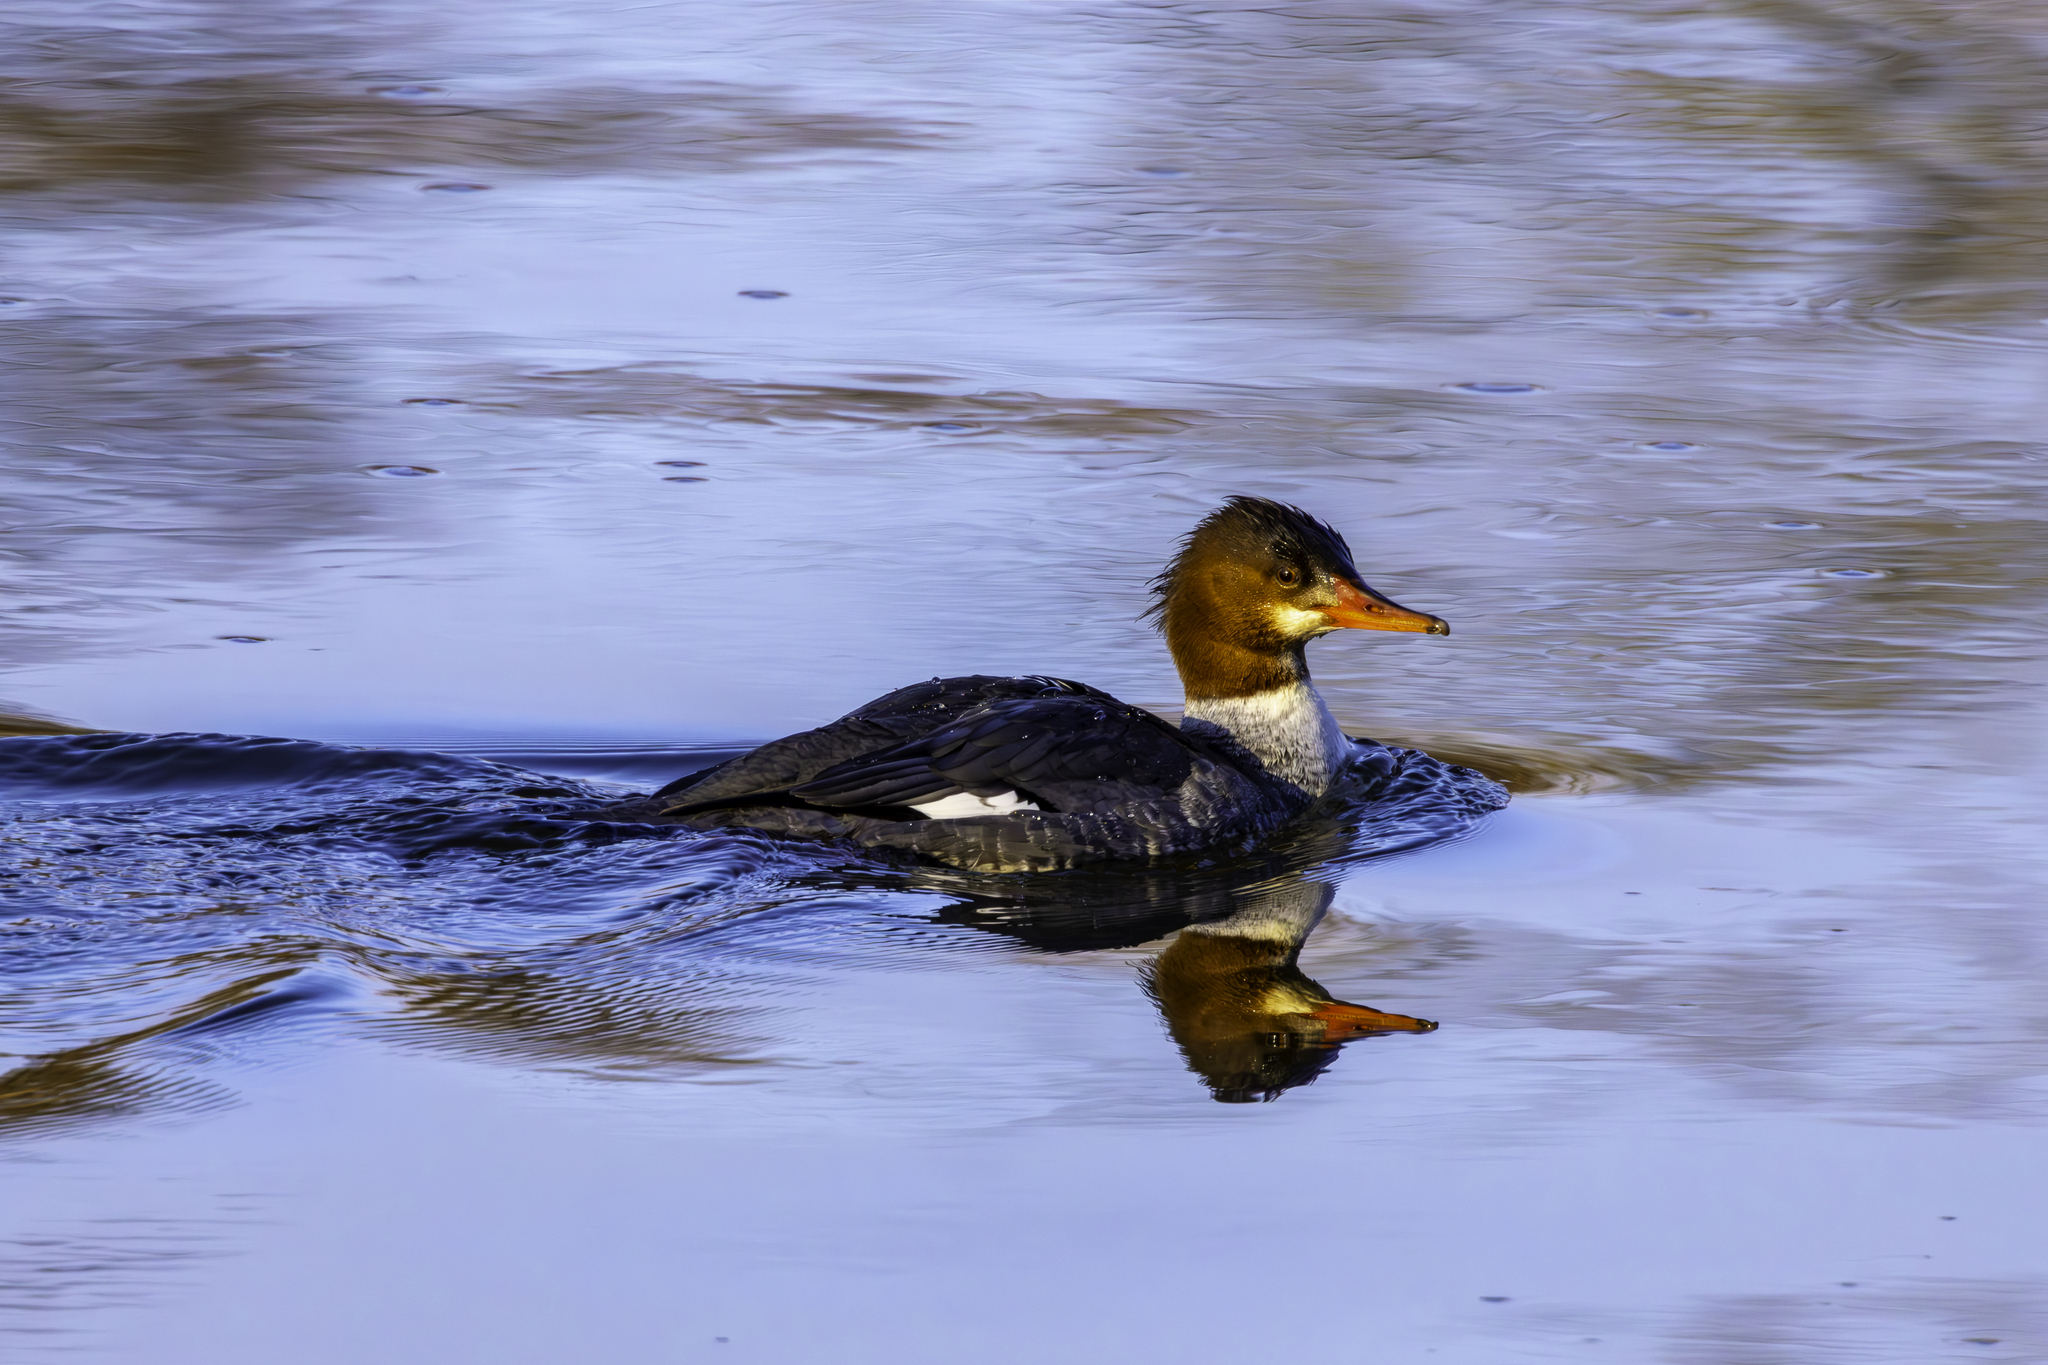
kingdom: Animalia
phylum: Chordata
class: Aves
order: Anseriformes
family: Anatidae
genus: Mergus
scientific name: Mergus merganser
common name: Common merganser
